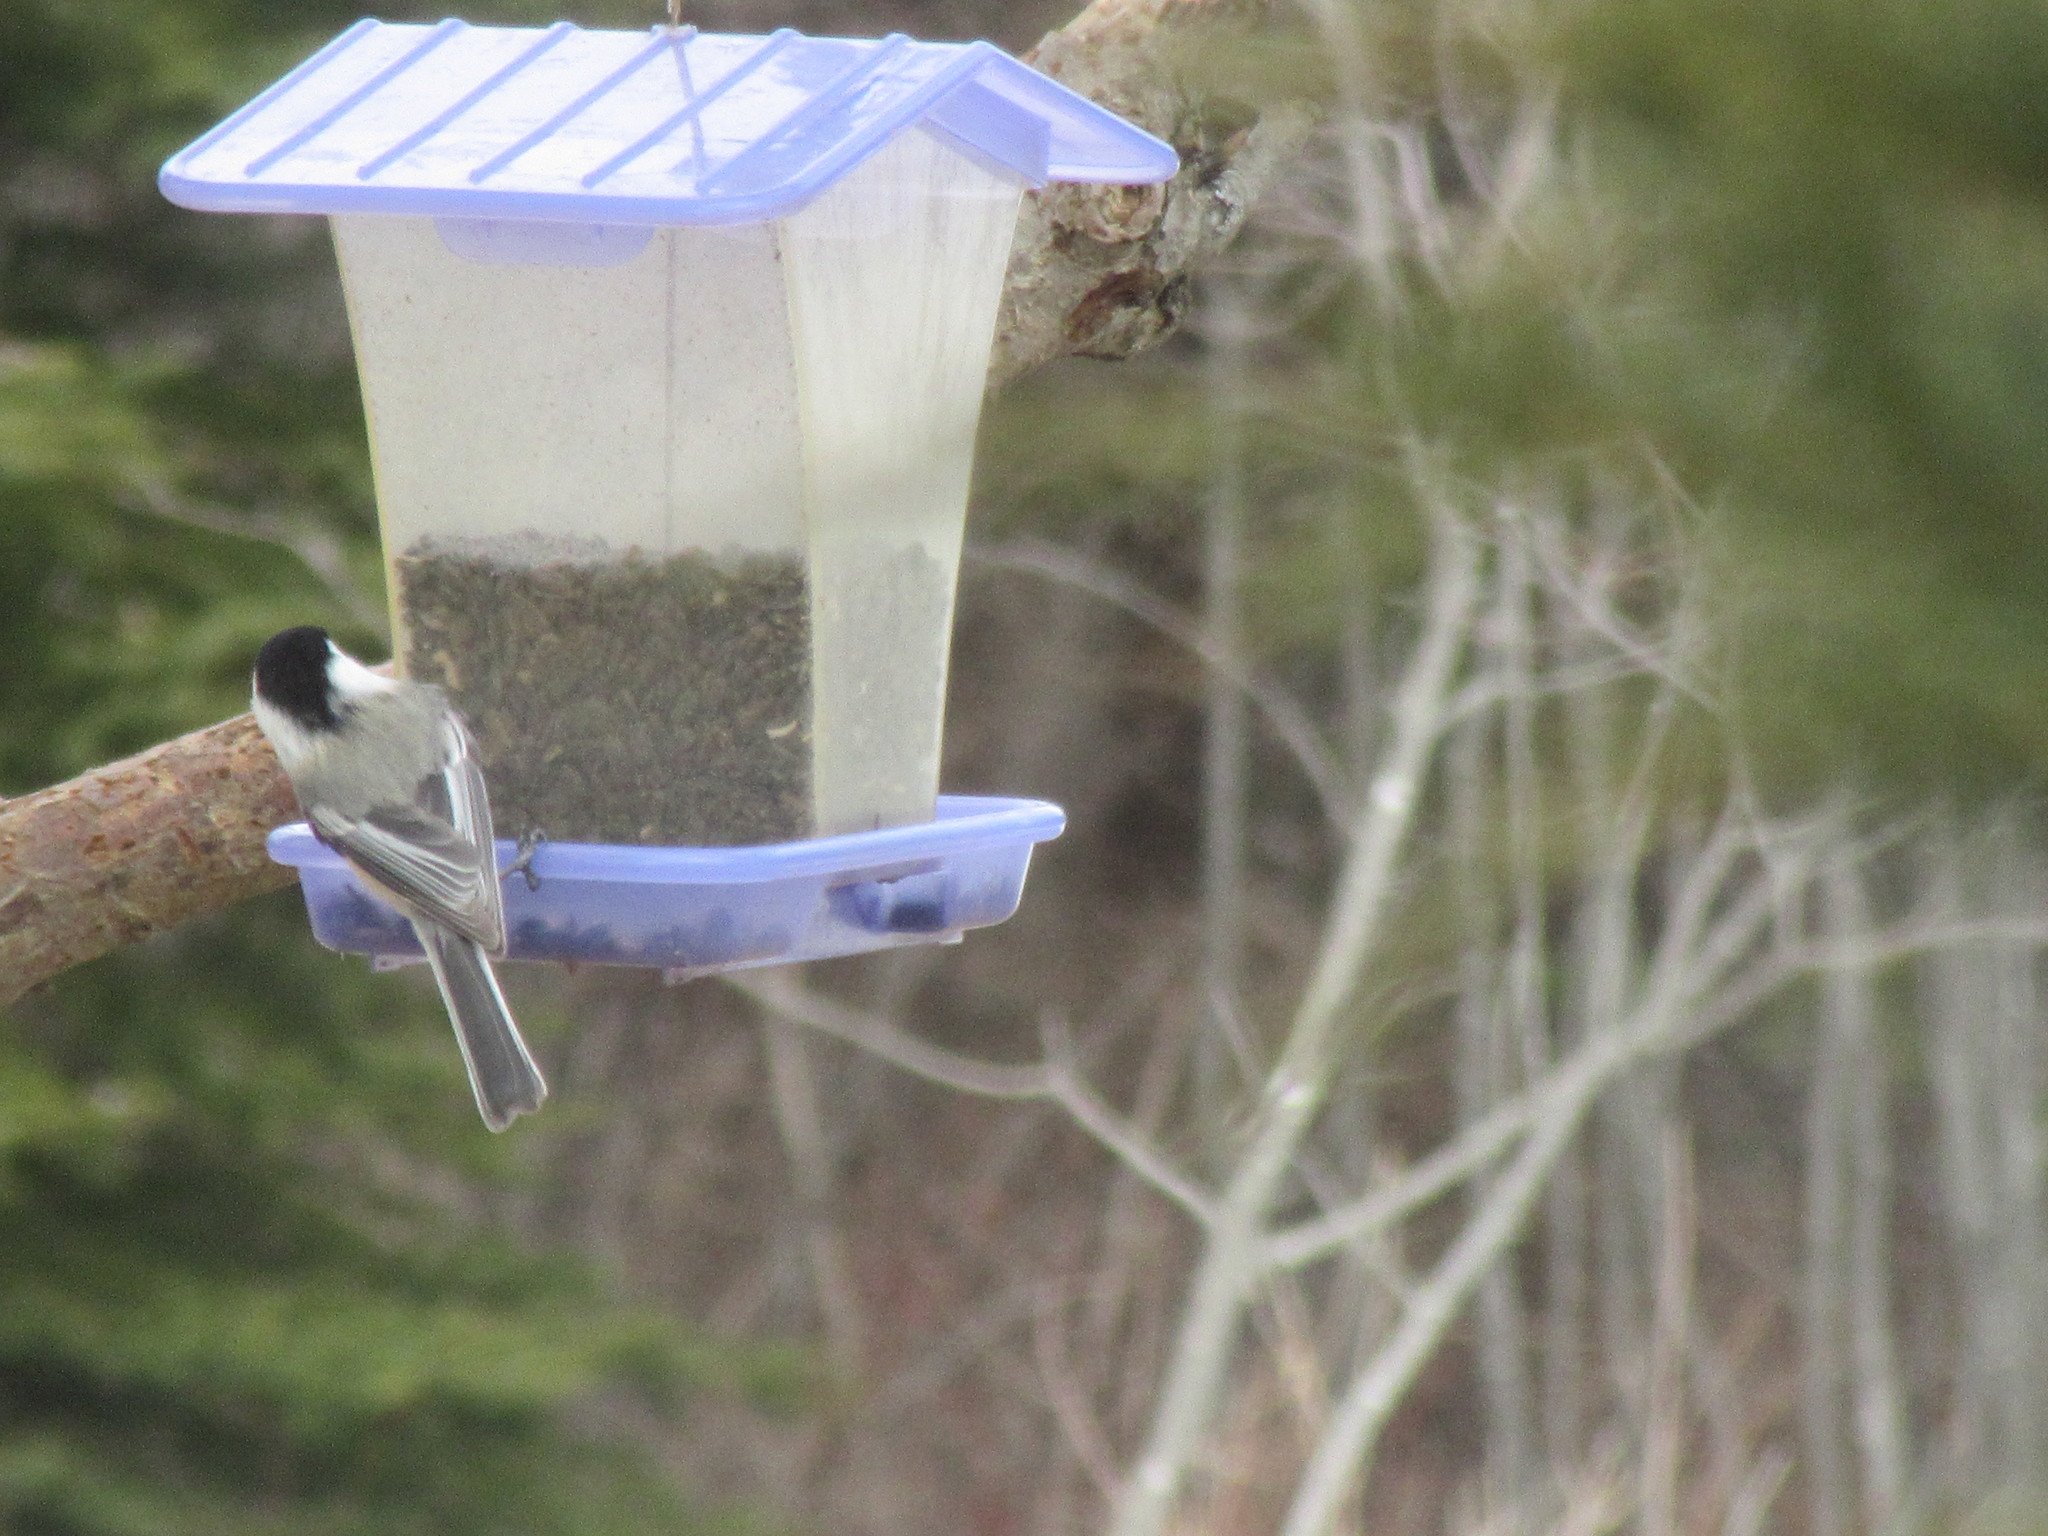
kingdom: Animalia
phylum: Chordata
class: Aves
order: Passeriformes
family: Paridae
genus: Poecile
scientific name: Poecile atricapillus
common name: Black-capped chickadee
